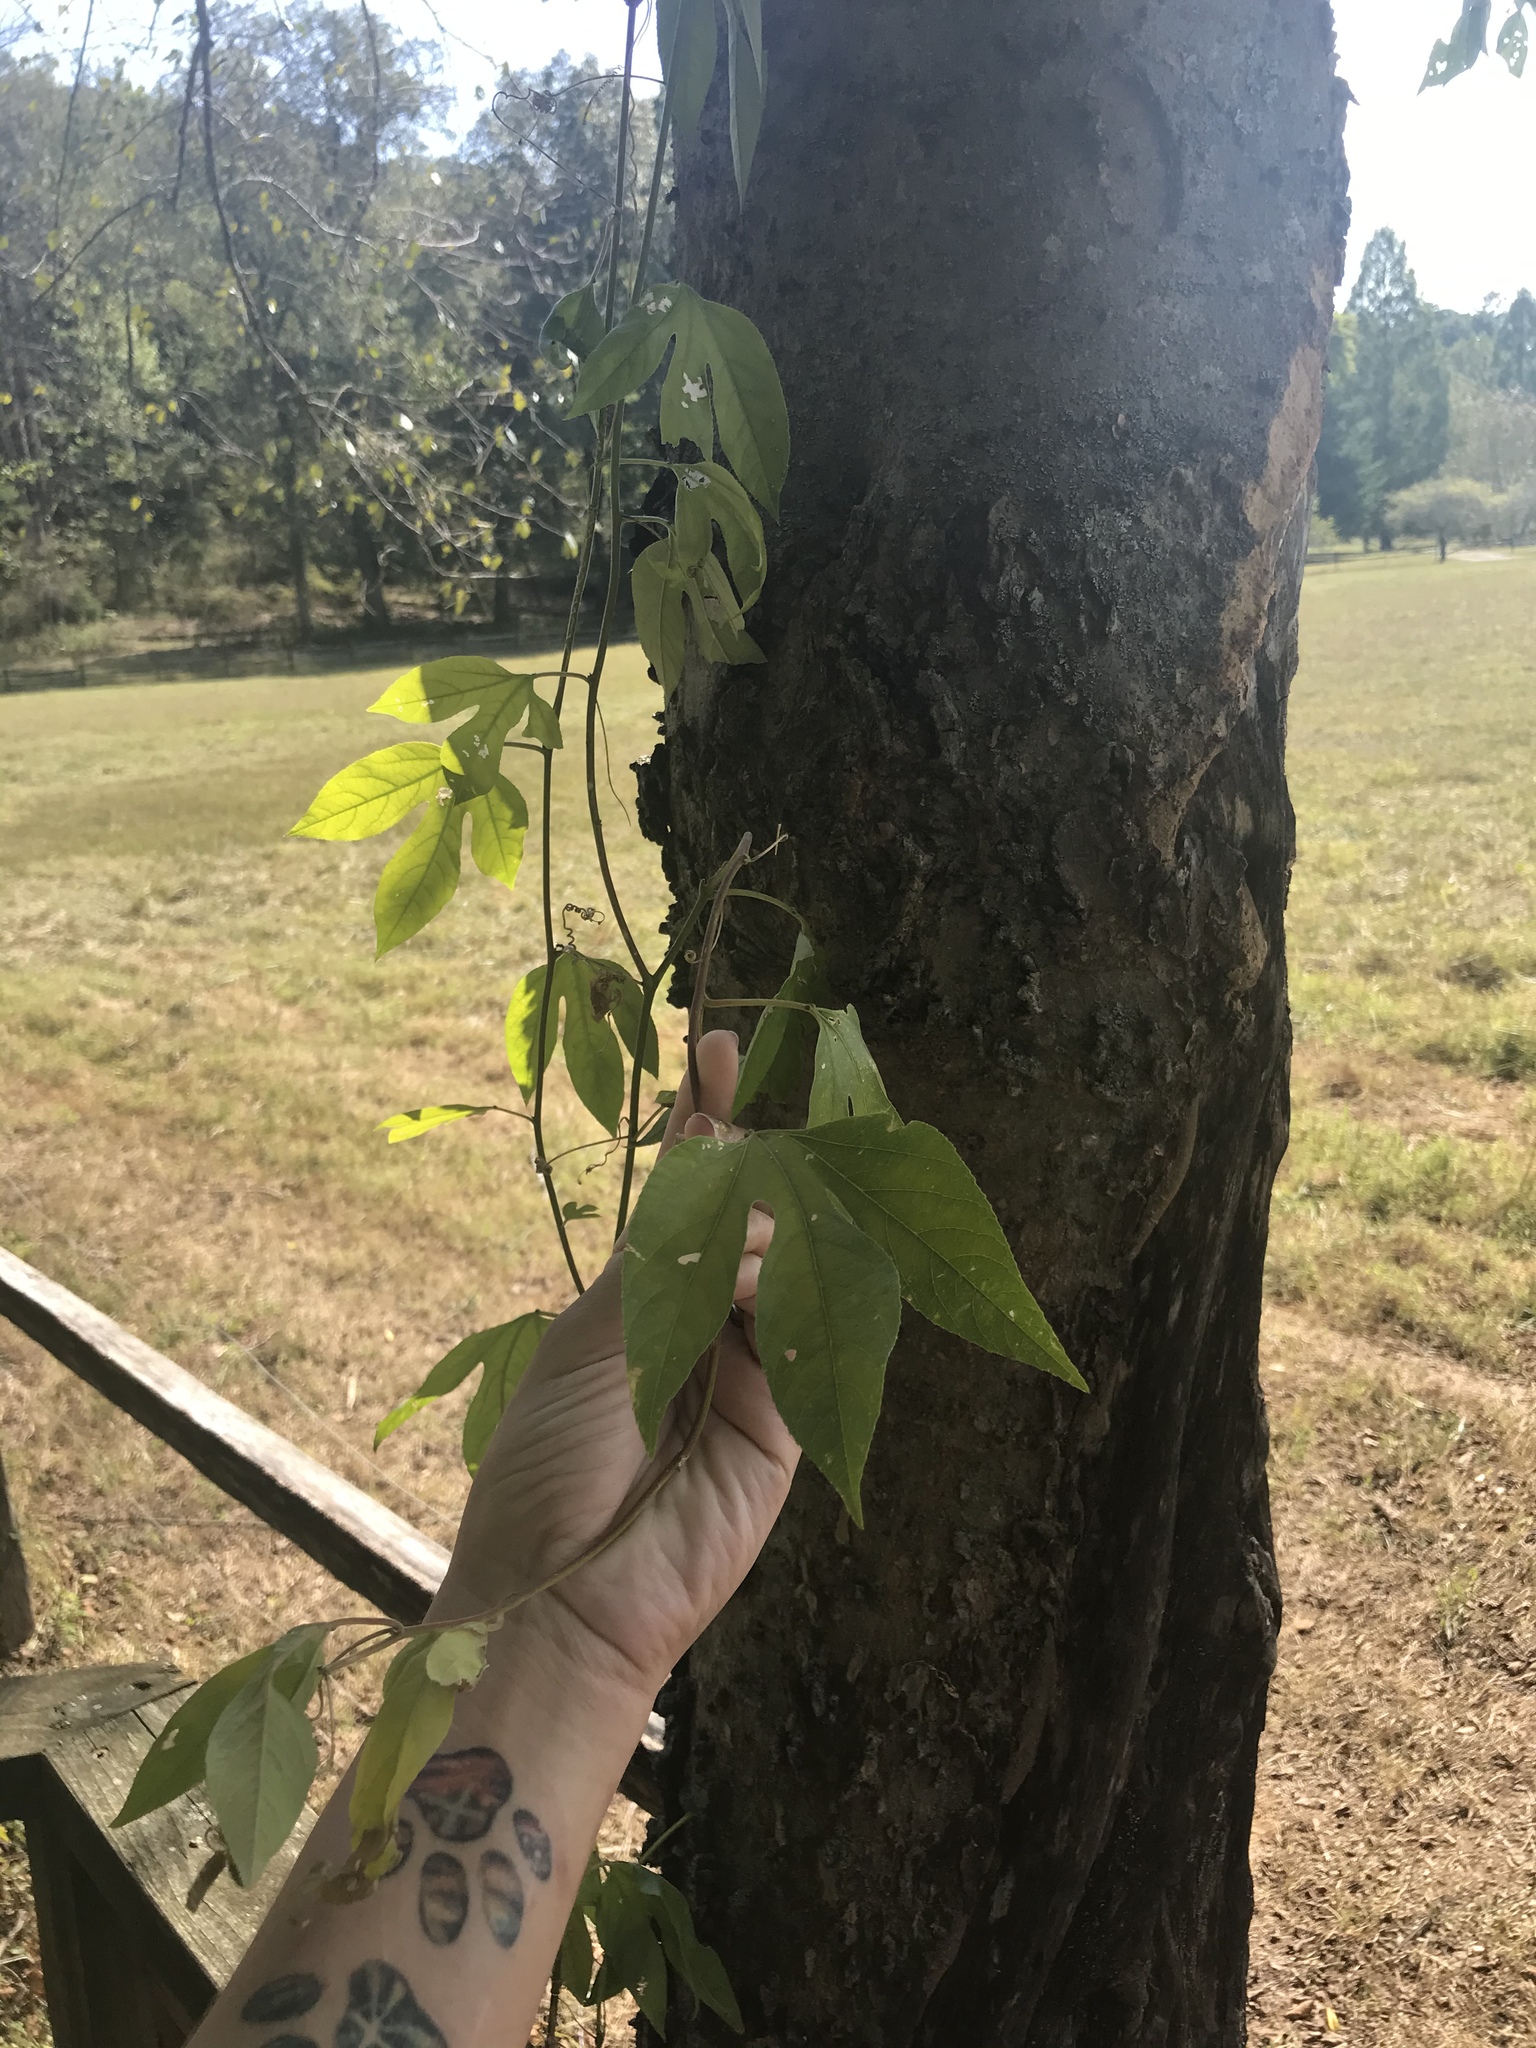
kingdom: Plantae
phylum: Tracheophyta
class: Magnoliopsida
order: Malpighiales
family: Passifloraceae
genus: Passiflora
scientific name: Passiflora incarnata
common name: Apricot-vine
